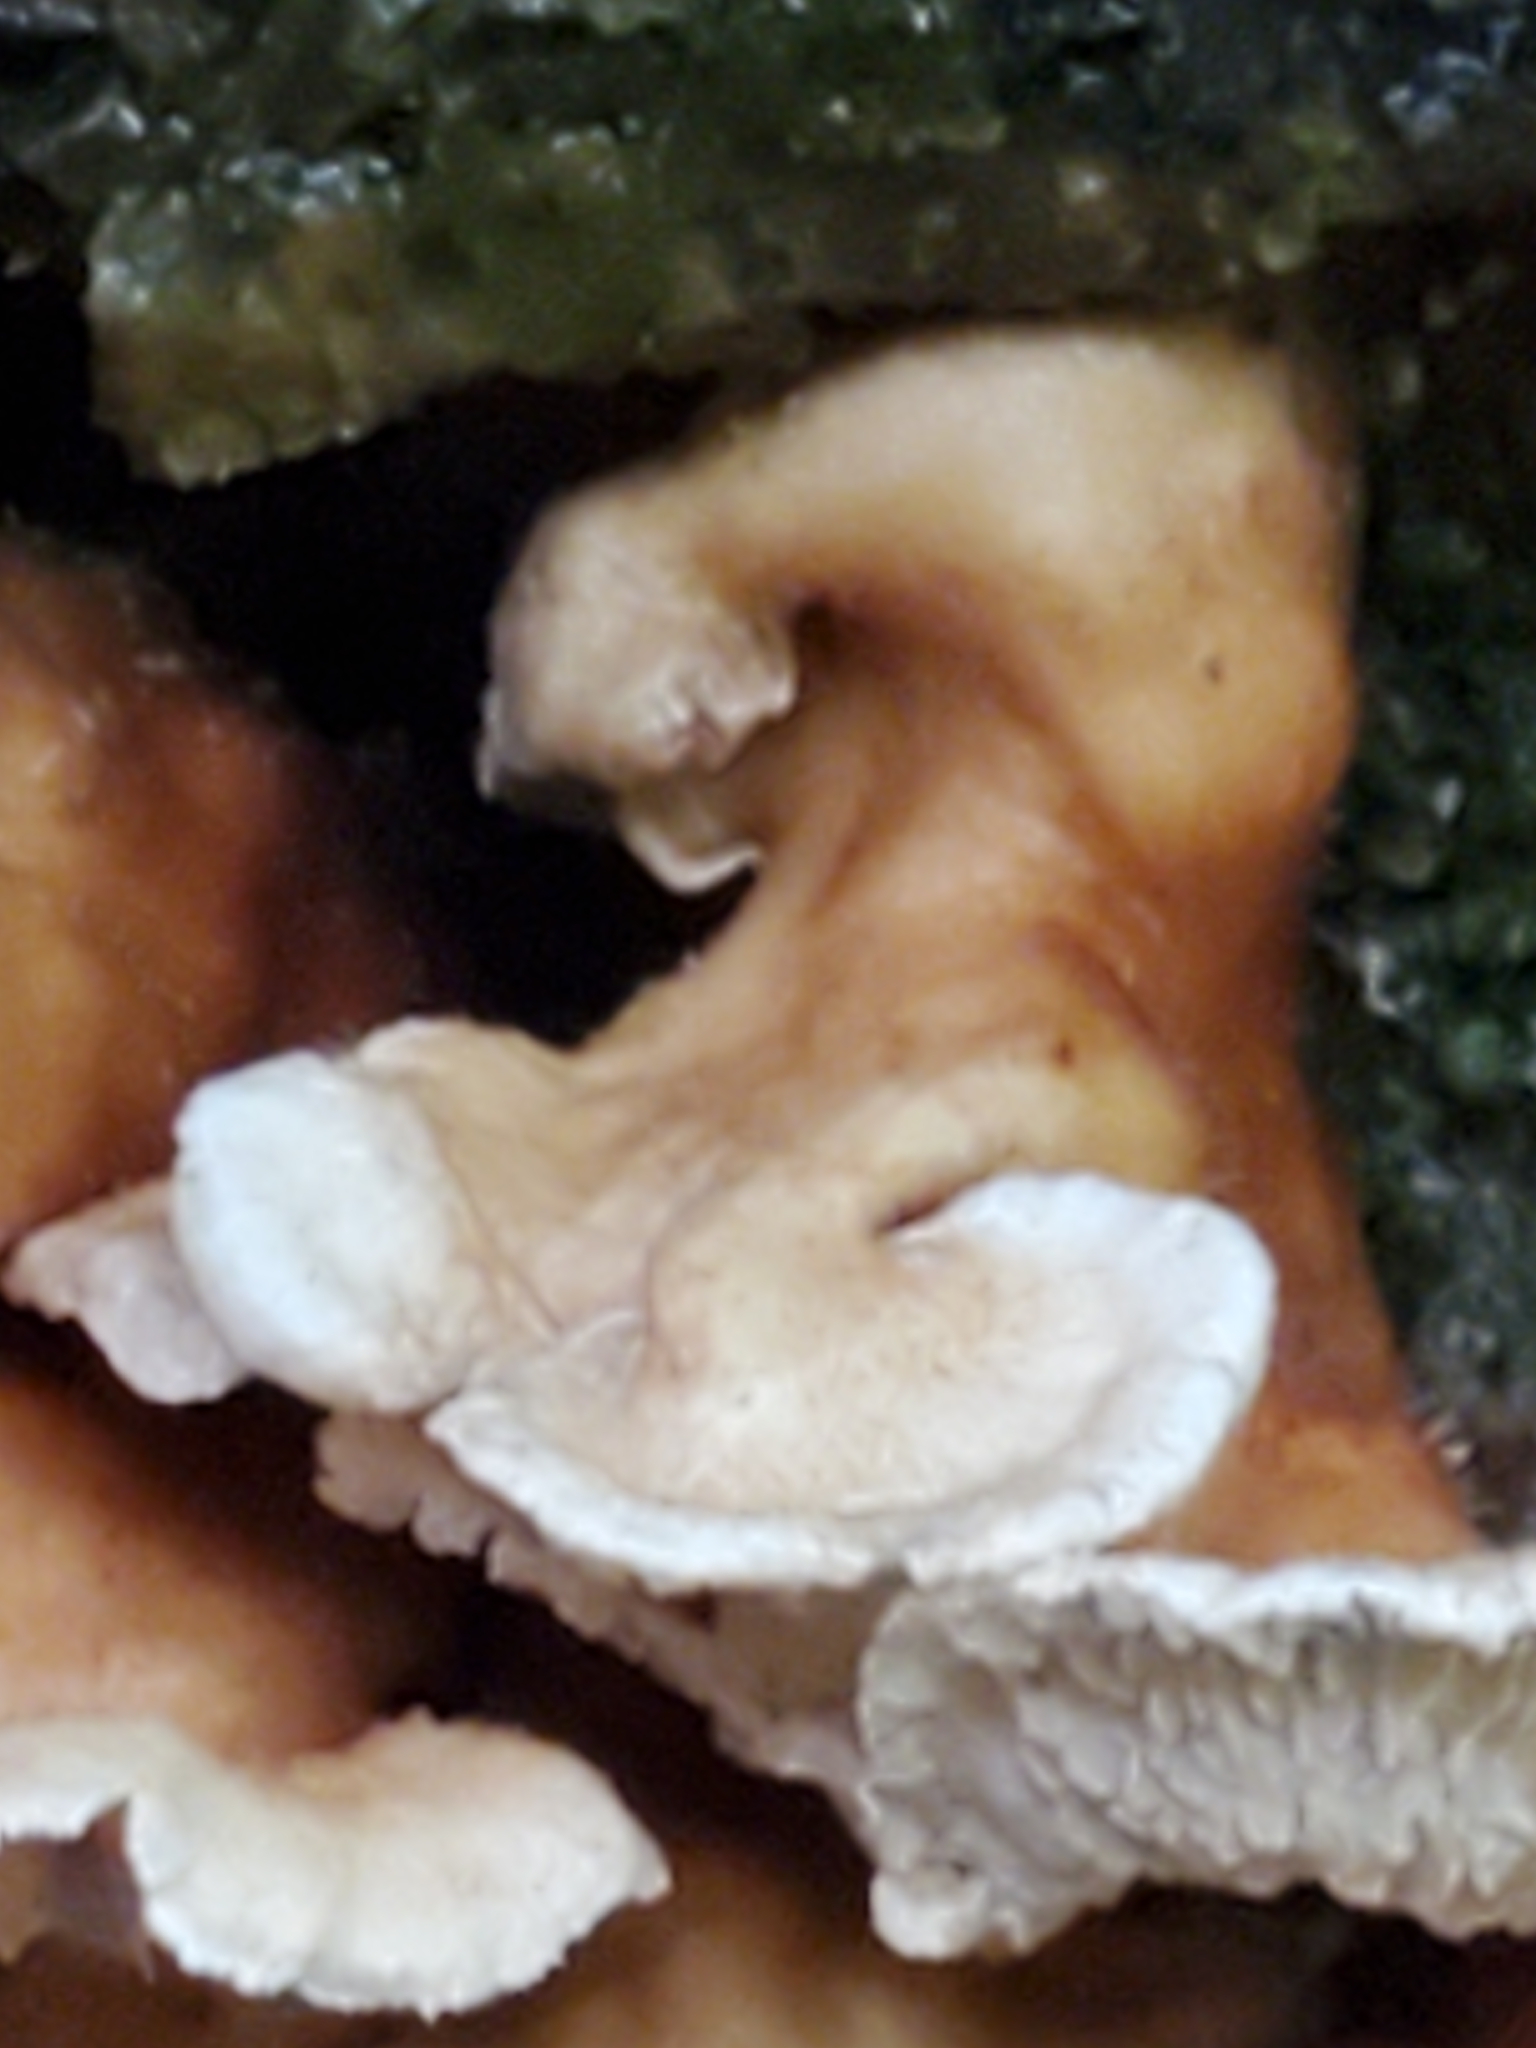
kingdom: Fungi
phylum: Basidiomycota
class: Agaricomycetes
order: Amylocorticiales
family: Amylocorticiaceae
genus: Plicaturopsis
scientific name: Plicaturopsis crispa
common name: Crimped gill
